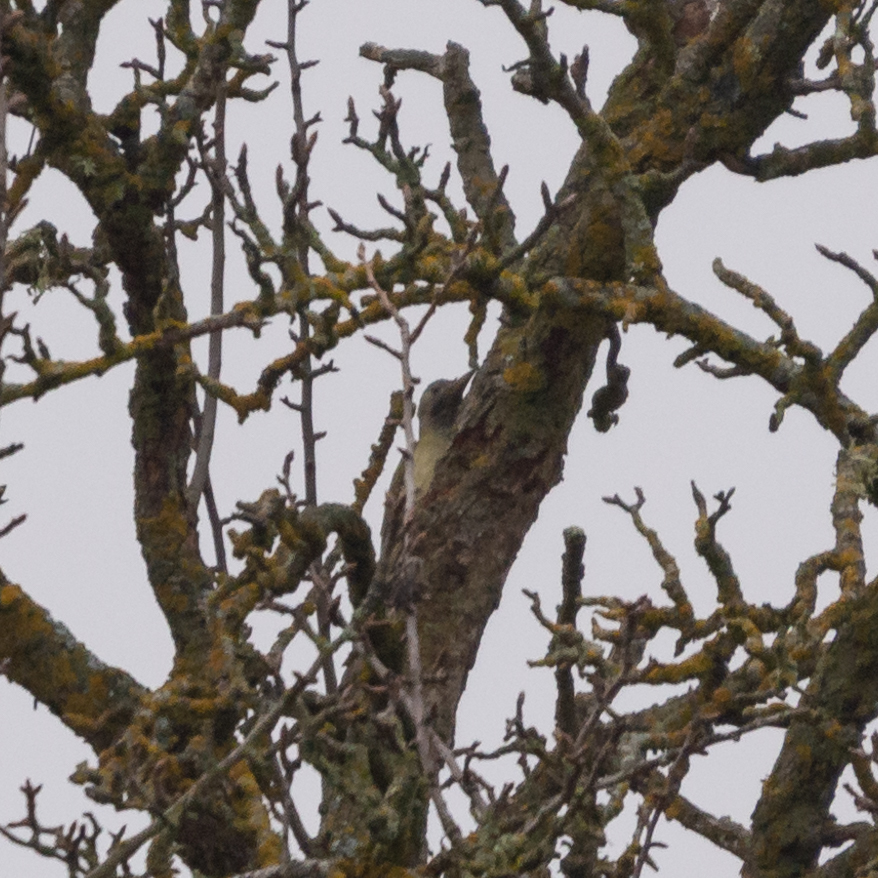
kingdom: Animalia
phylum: Chordata
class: Aves
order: Piciformes
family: Picidae
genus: Picus
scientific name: Picus sharpei
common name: Iberian green woodpecker
